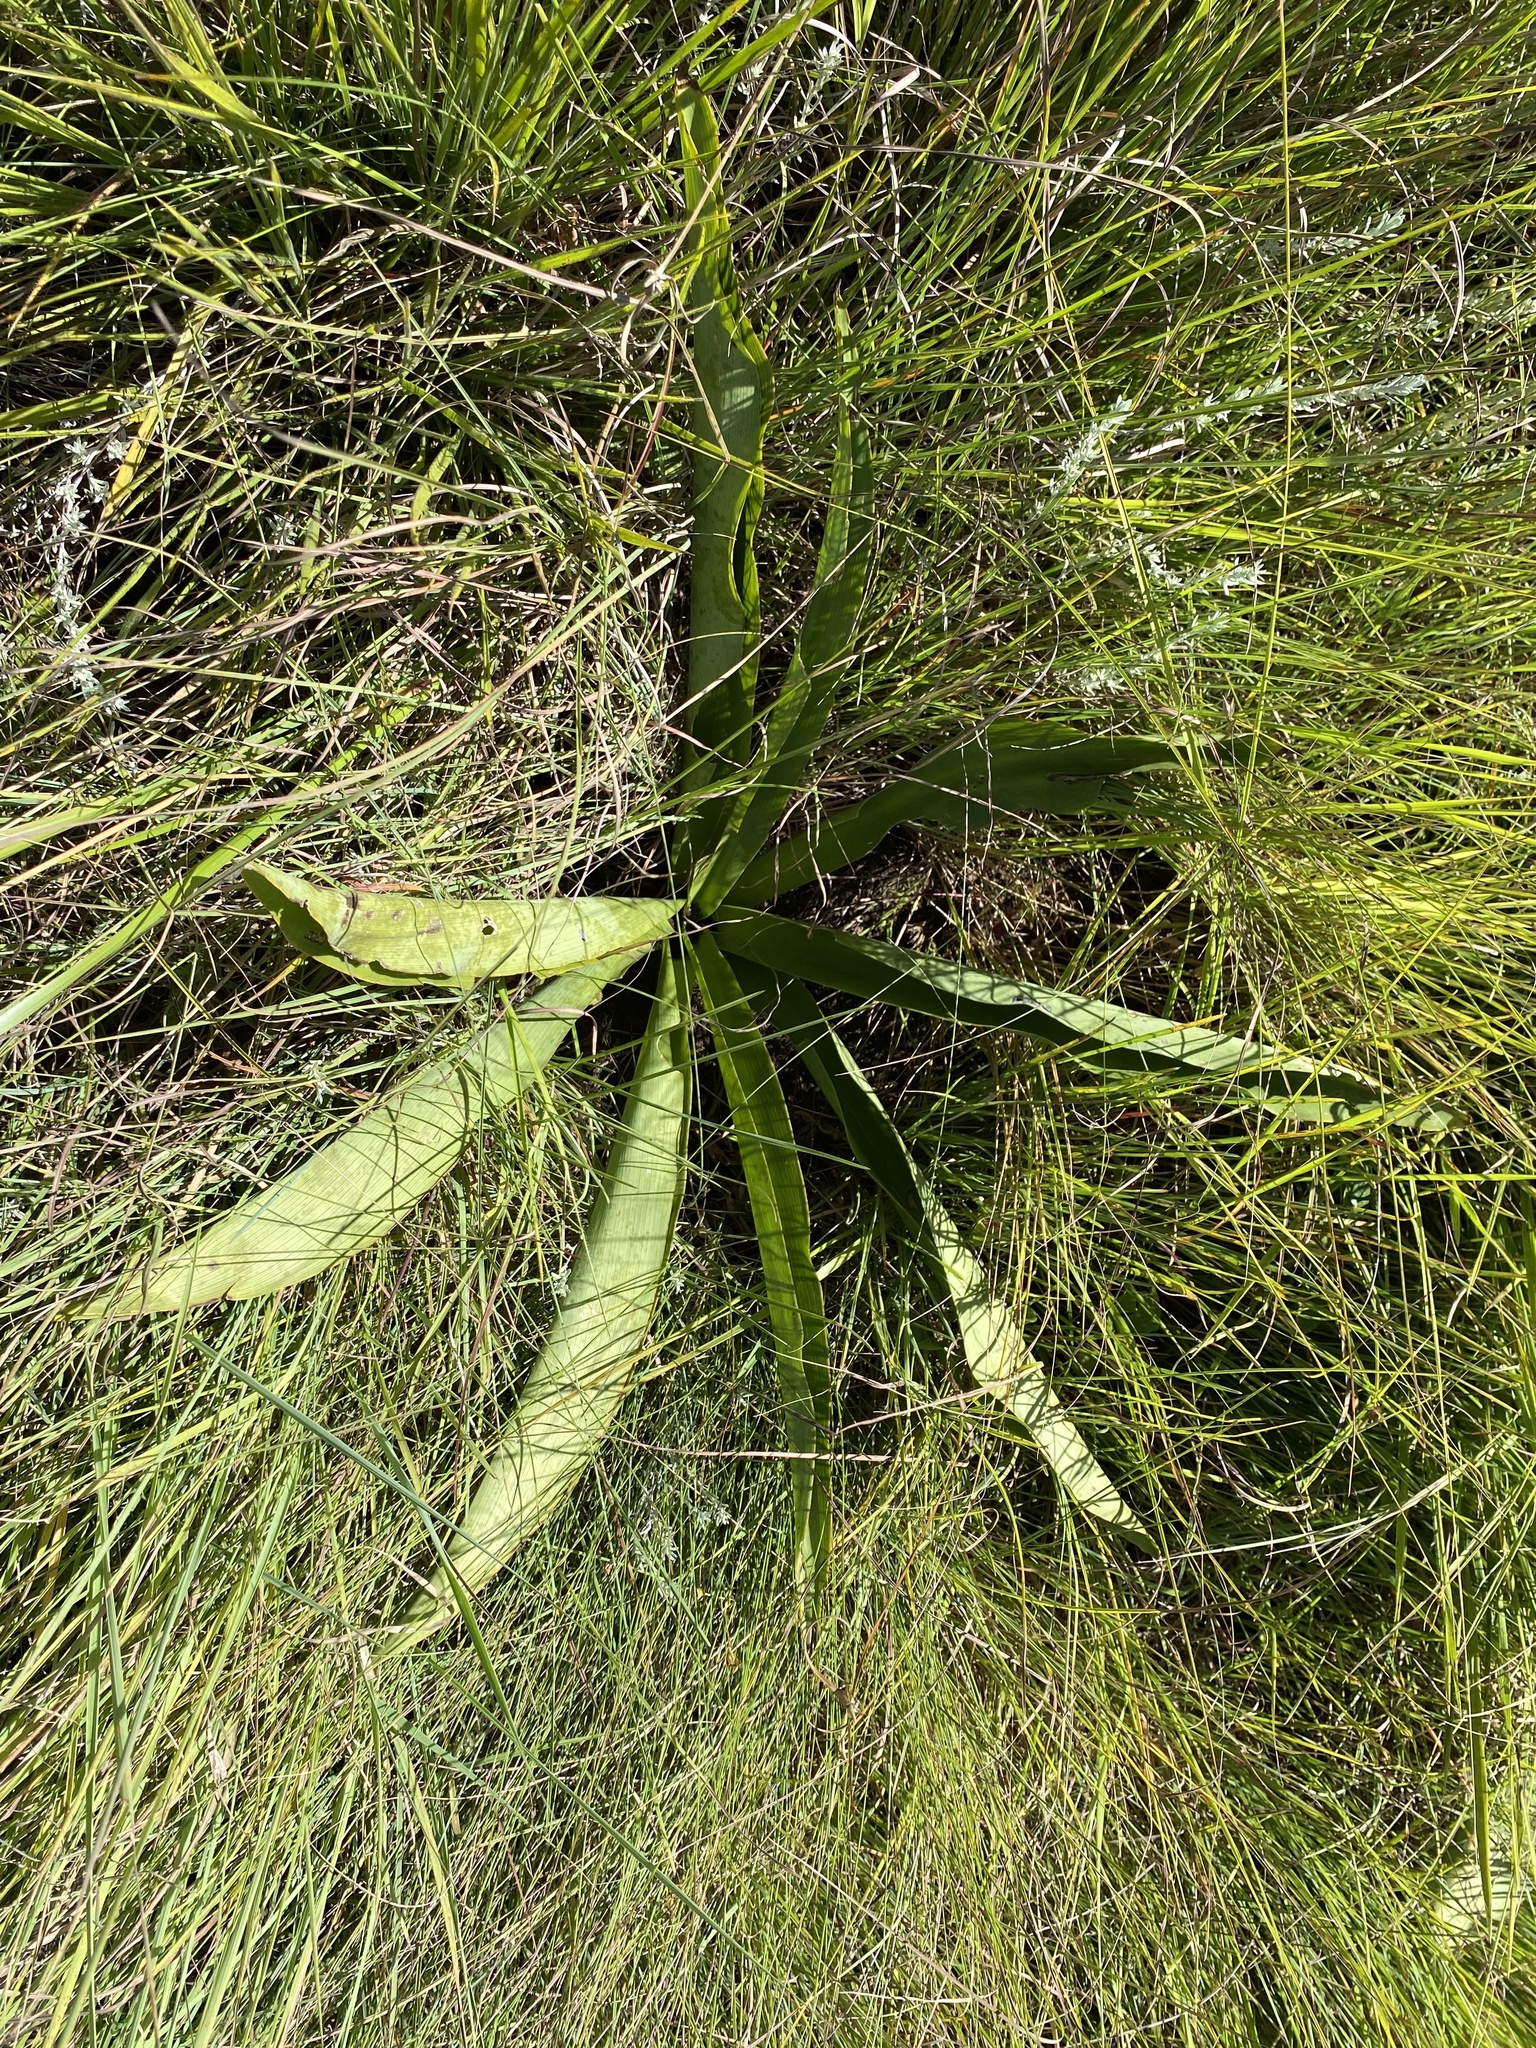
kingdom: Plantae
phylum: Tracheophyta
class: Liliopsida
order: Asparagales
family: Asparagaceae
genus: Eucomis
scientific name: Eucomis autumnalis
